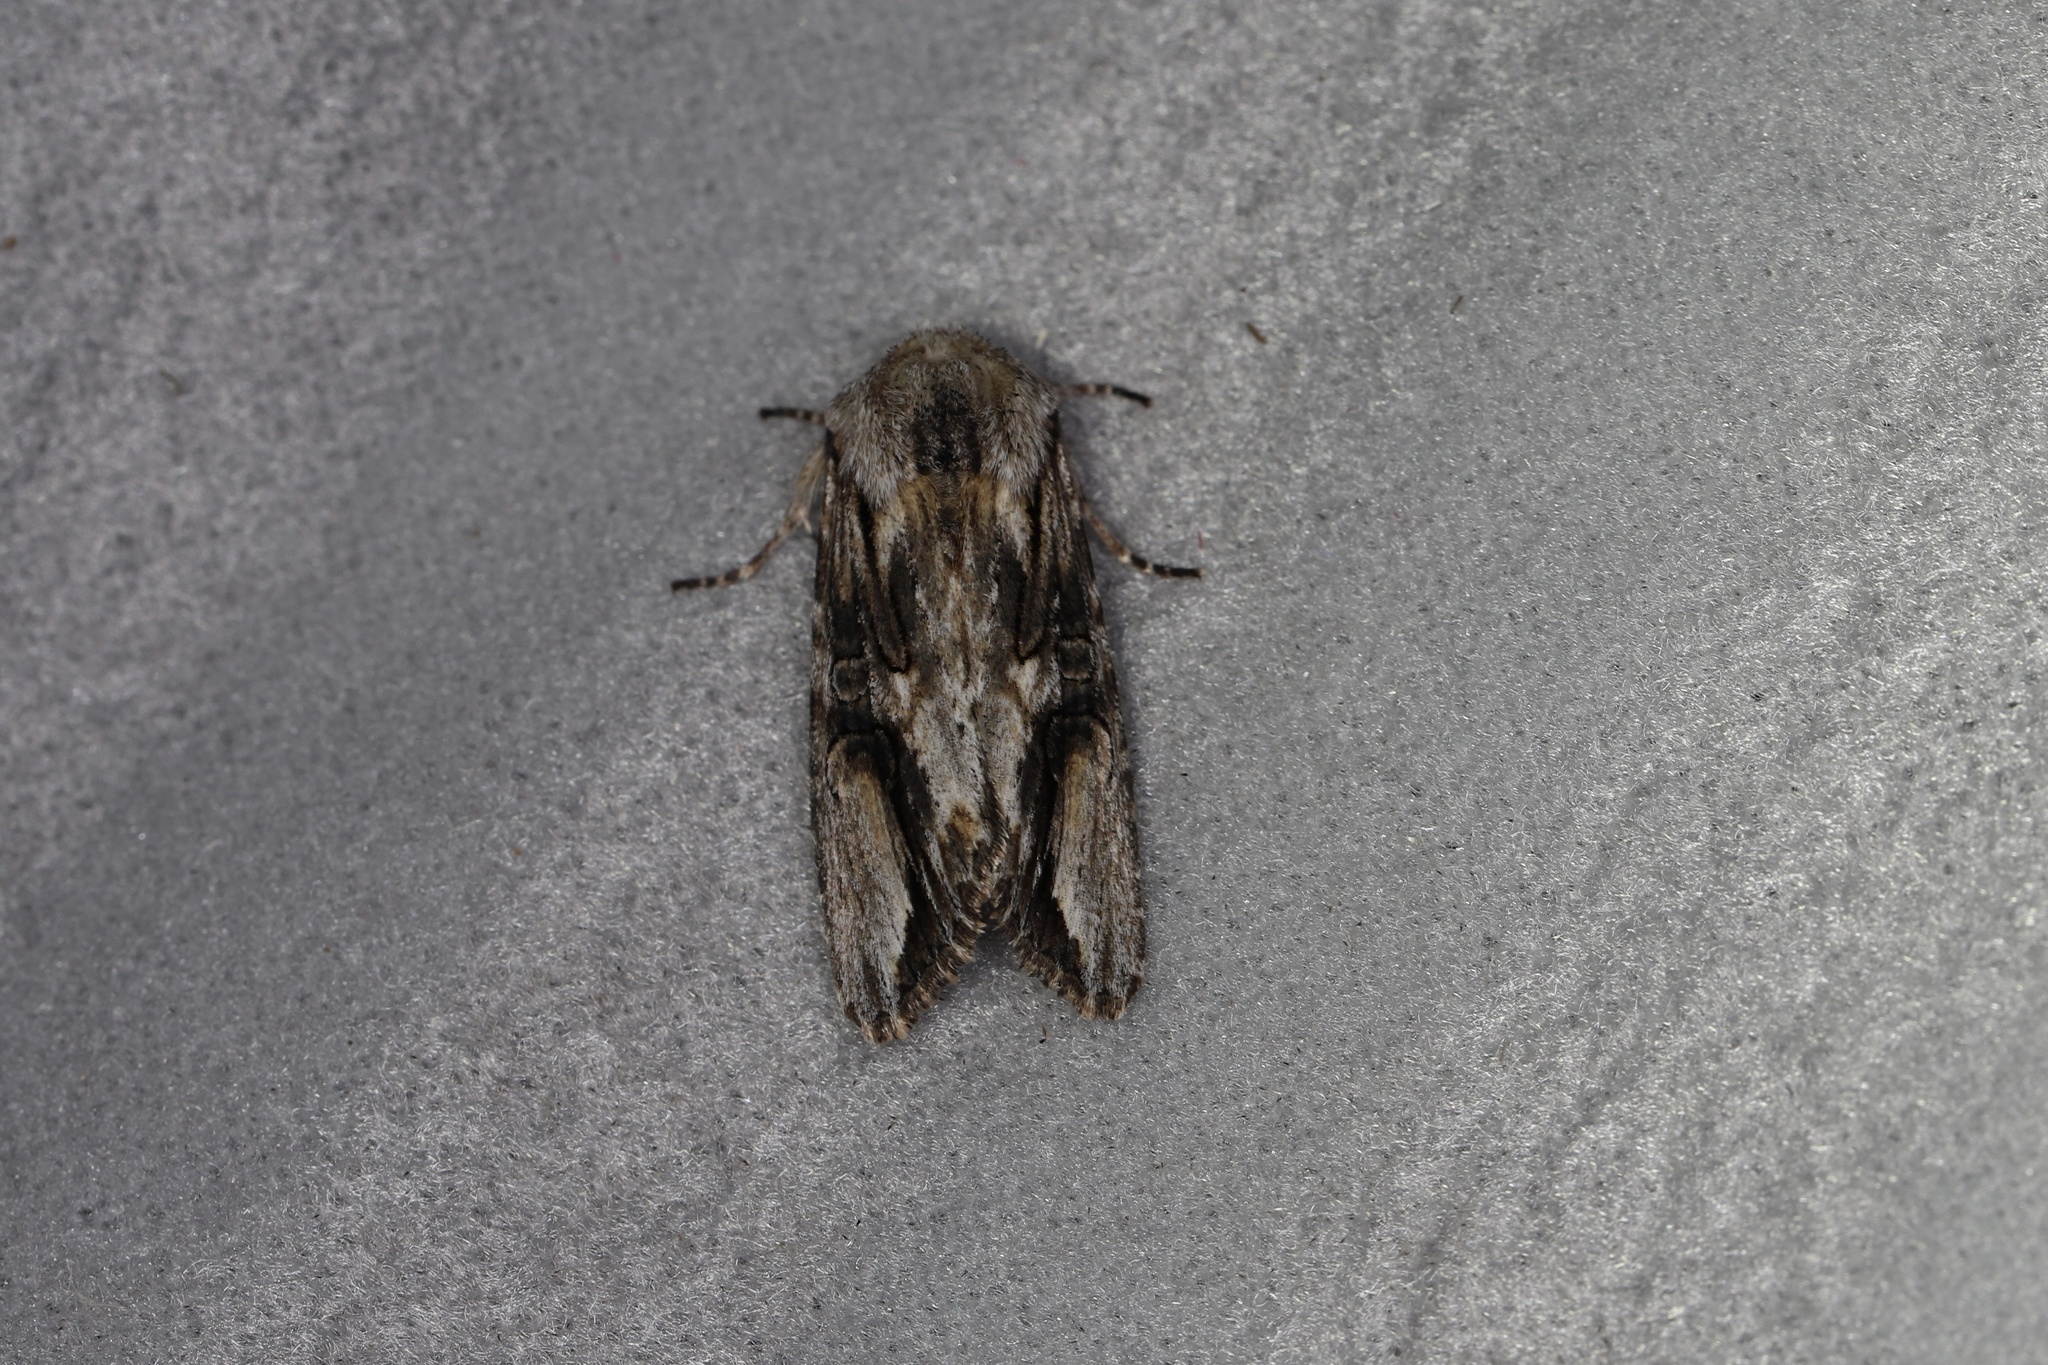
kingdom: Animalia
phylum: Arthropoda
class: Insecta
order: Lepidoptera
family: Noctuidae
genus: Egira
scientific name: Egira conspicillaris
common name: Silver cloud
